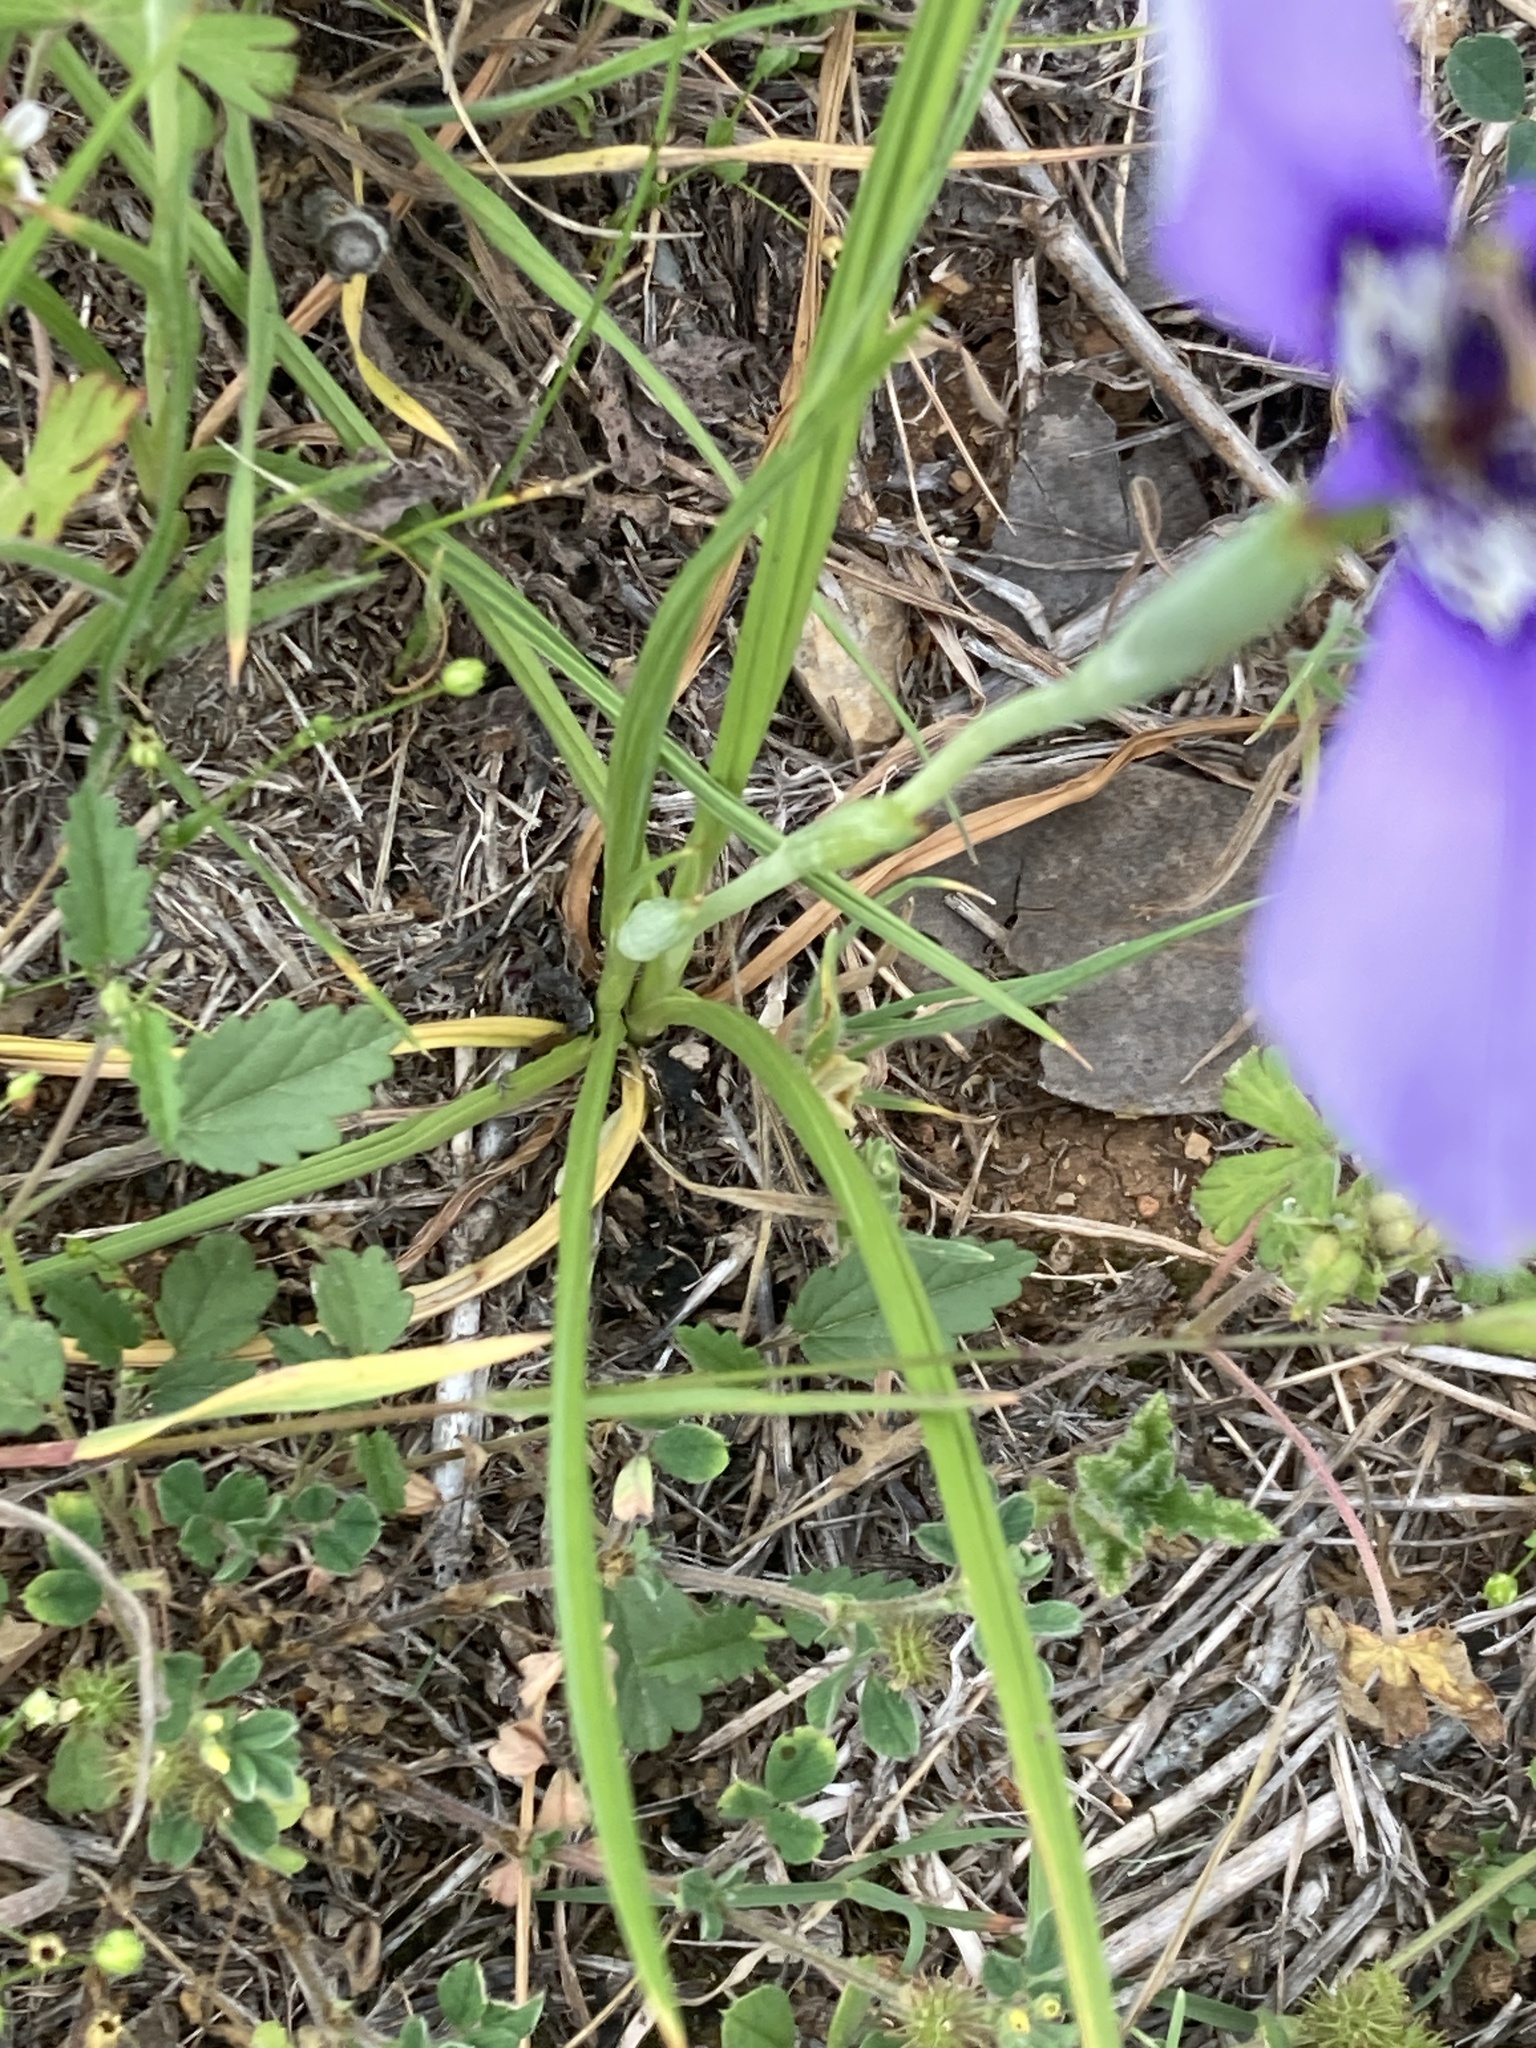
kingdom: Plantae
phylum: Tracheophyta
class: Liliopsida
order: Asparagales
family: Iridaceae
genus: Herbertia
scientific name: Herbertia lahue
